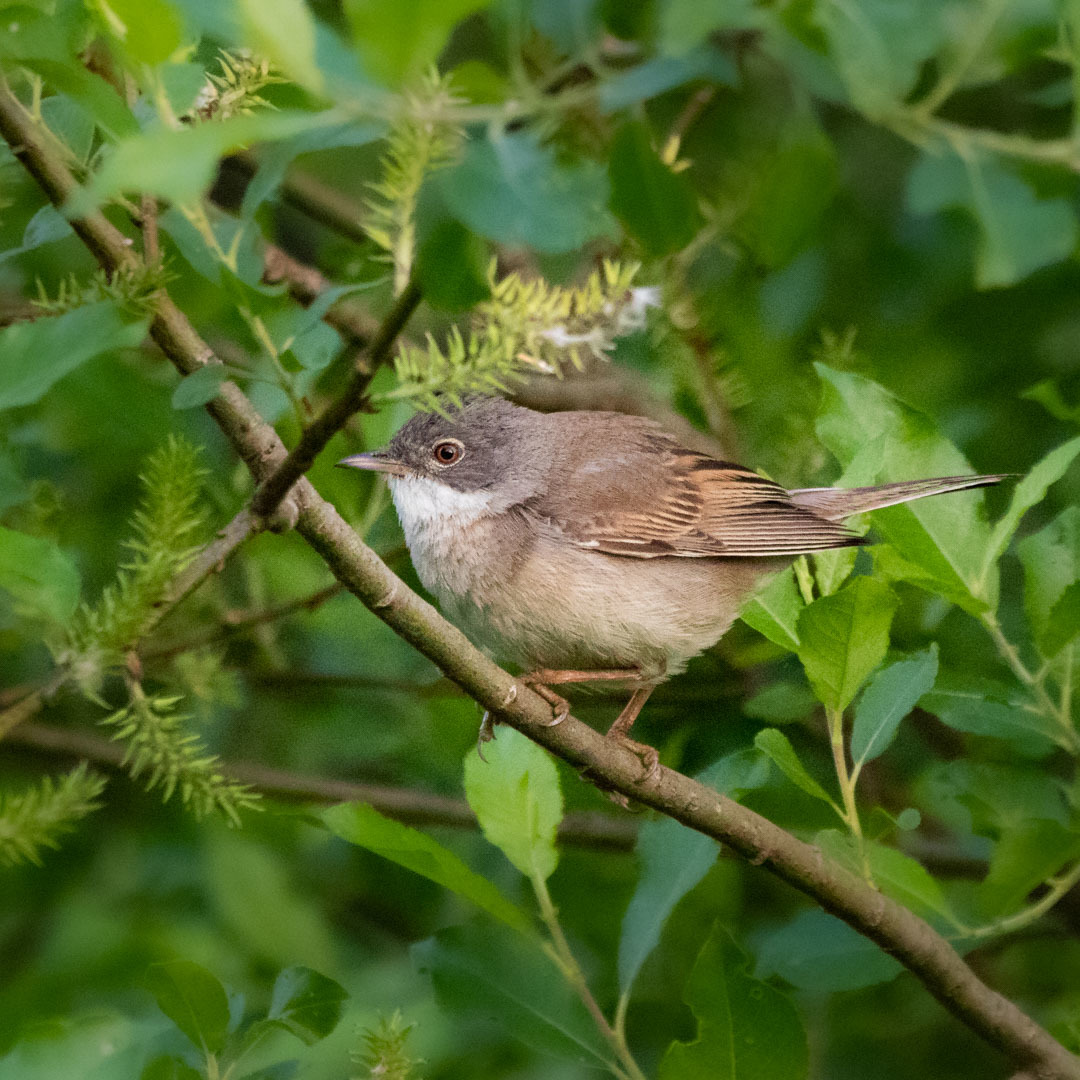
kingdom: Animalia
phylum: Chordata
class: Aves
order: Passeriformes
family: Sylviidae
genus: Sylvia
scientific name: Sylvia communis
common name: Common whitethroat
